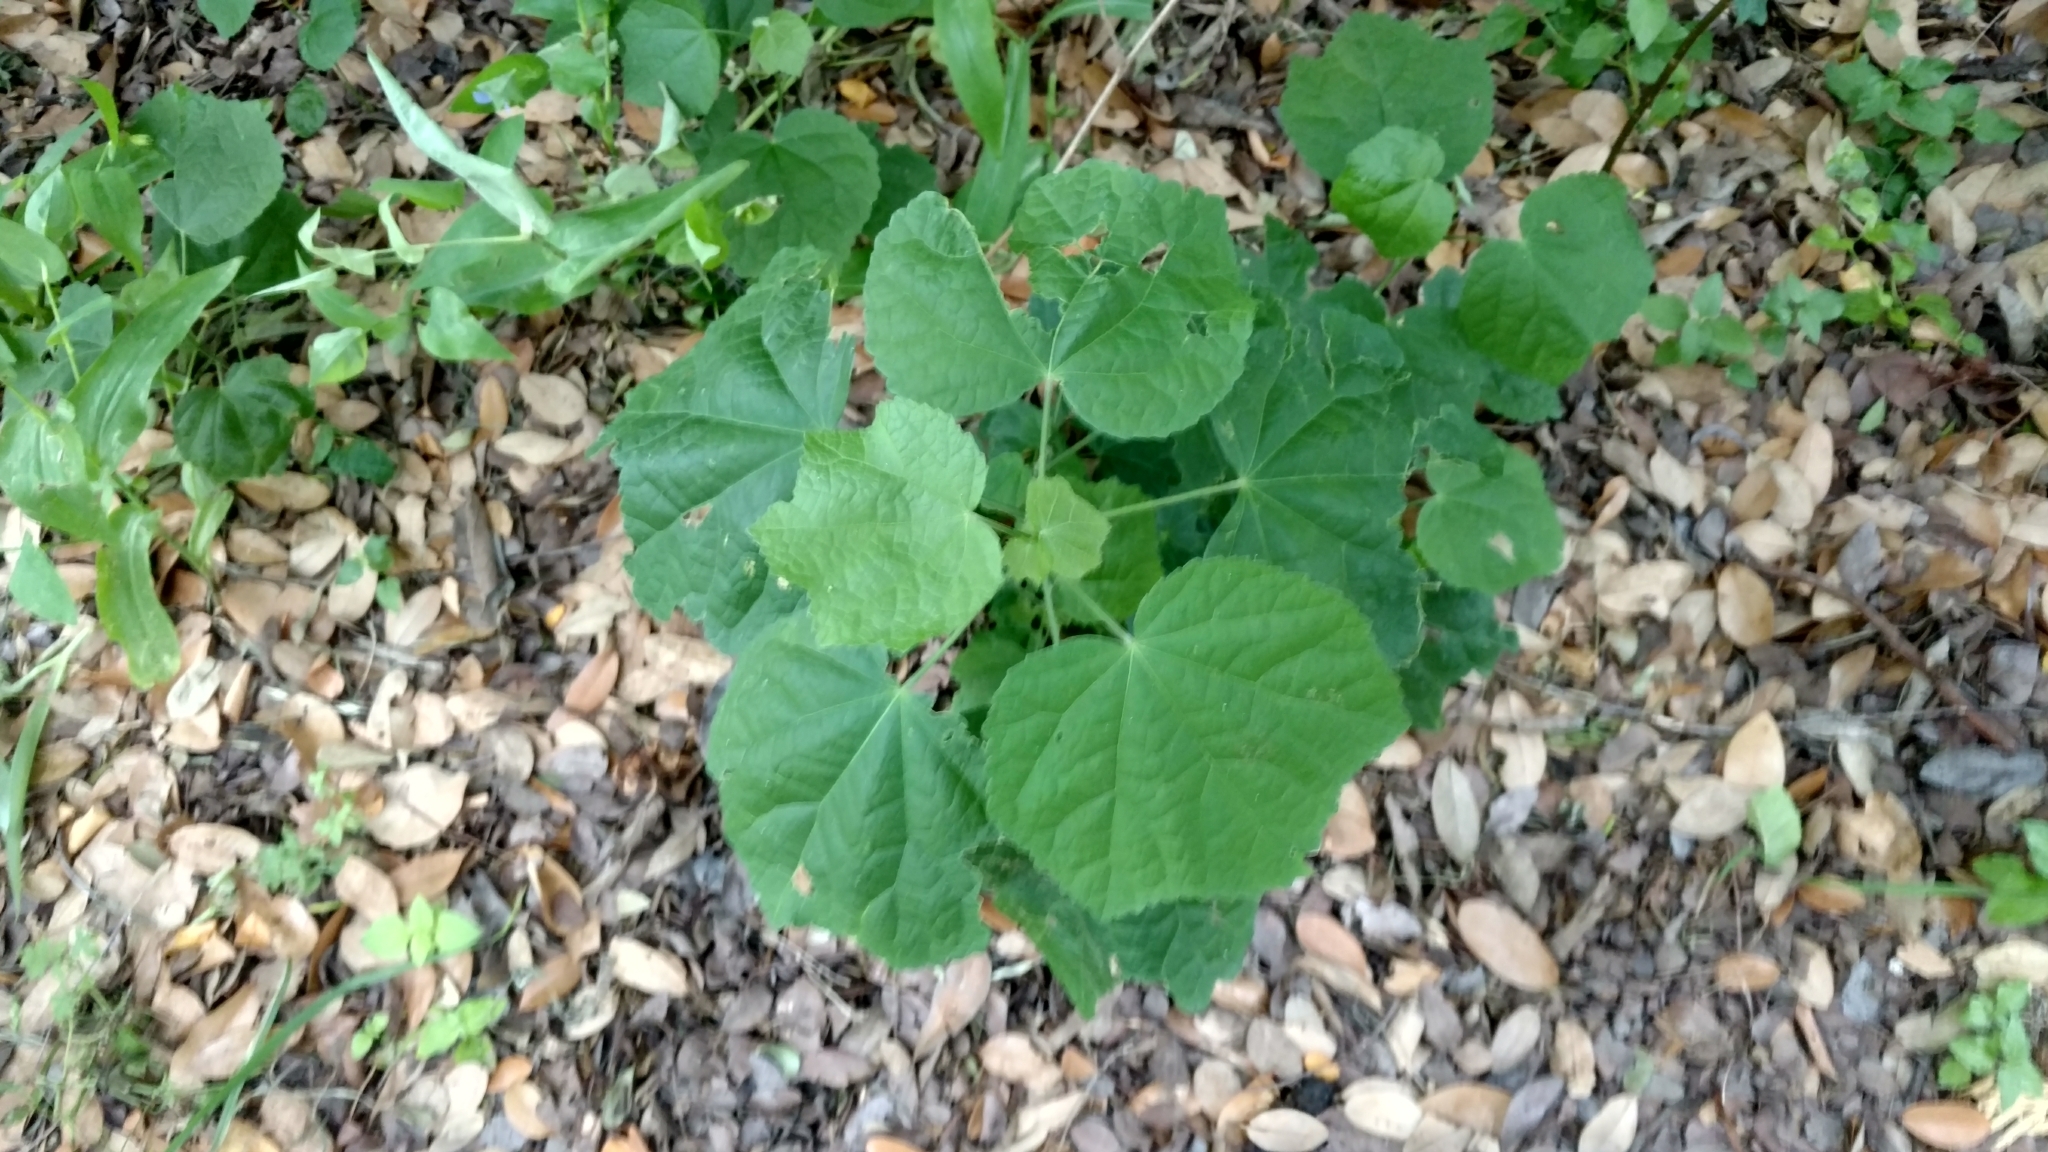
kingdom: Plantae
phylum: Tracheophyta
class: Magnoliopsida
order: Malvales
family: Malvaceae
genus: Malvaviscus
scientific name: Malvaviscus arboreus
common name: Wax mallow
